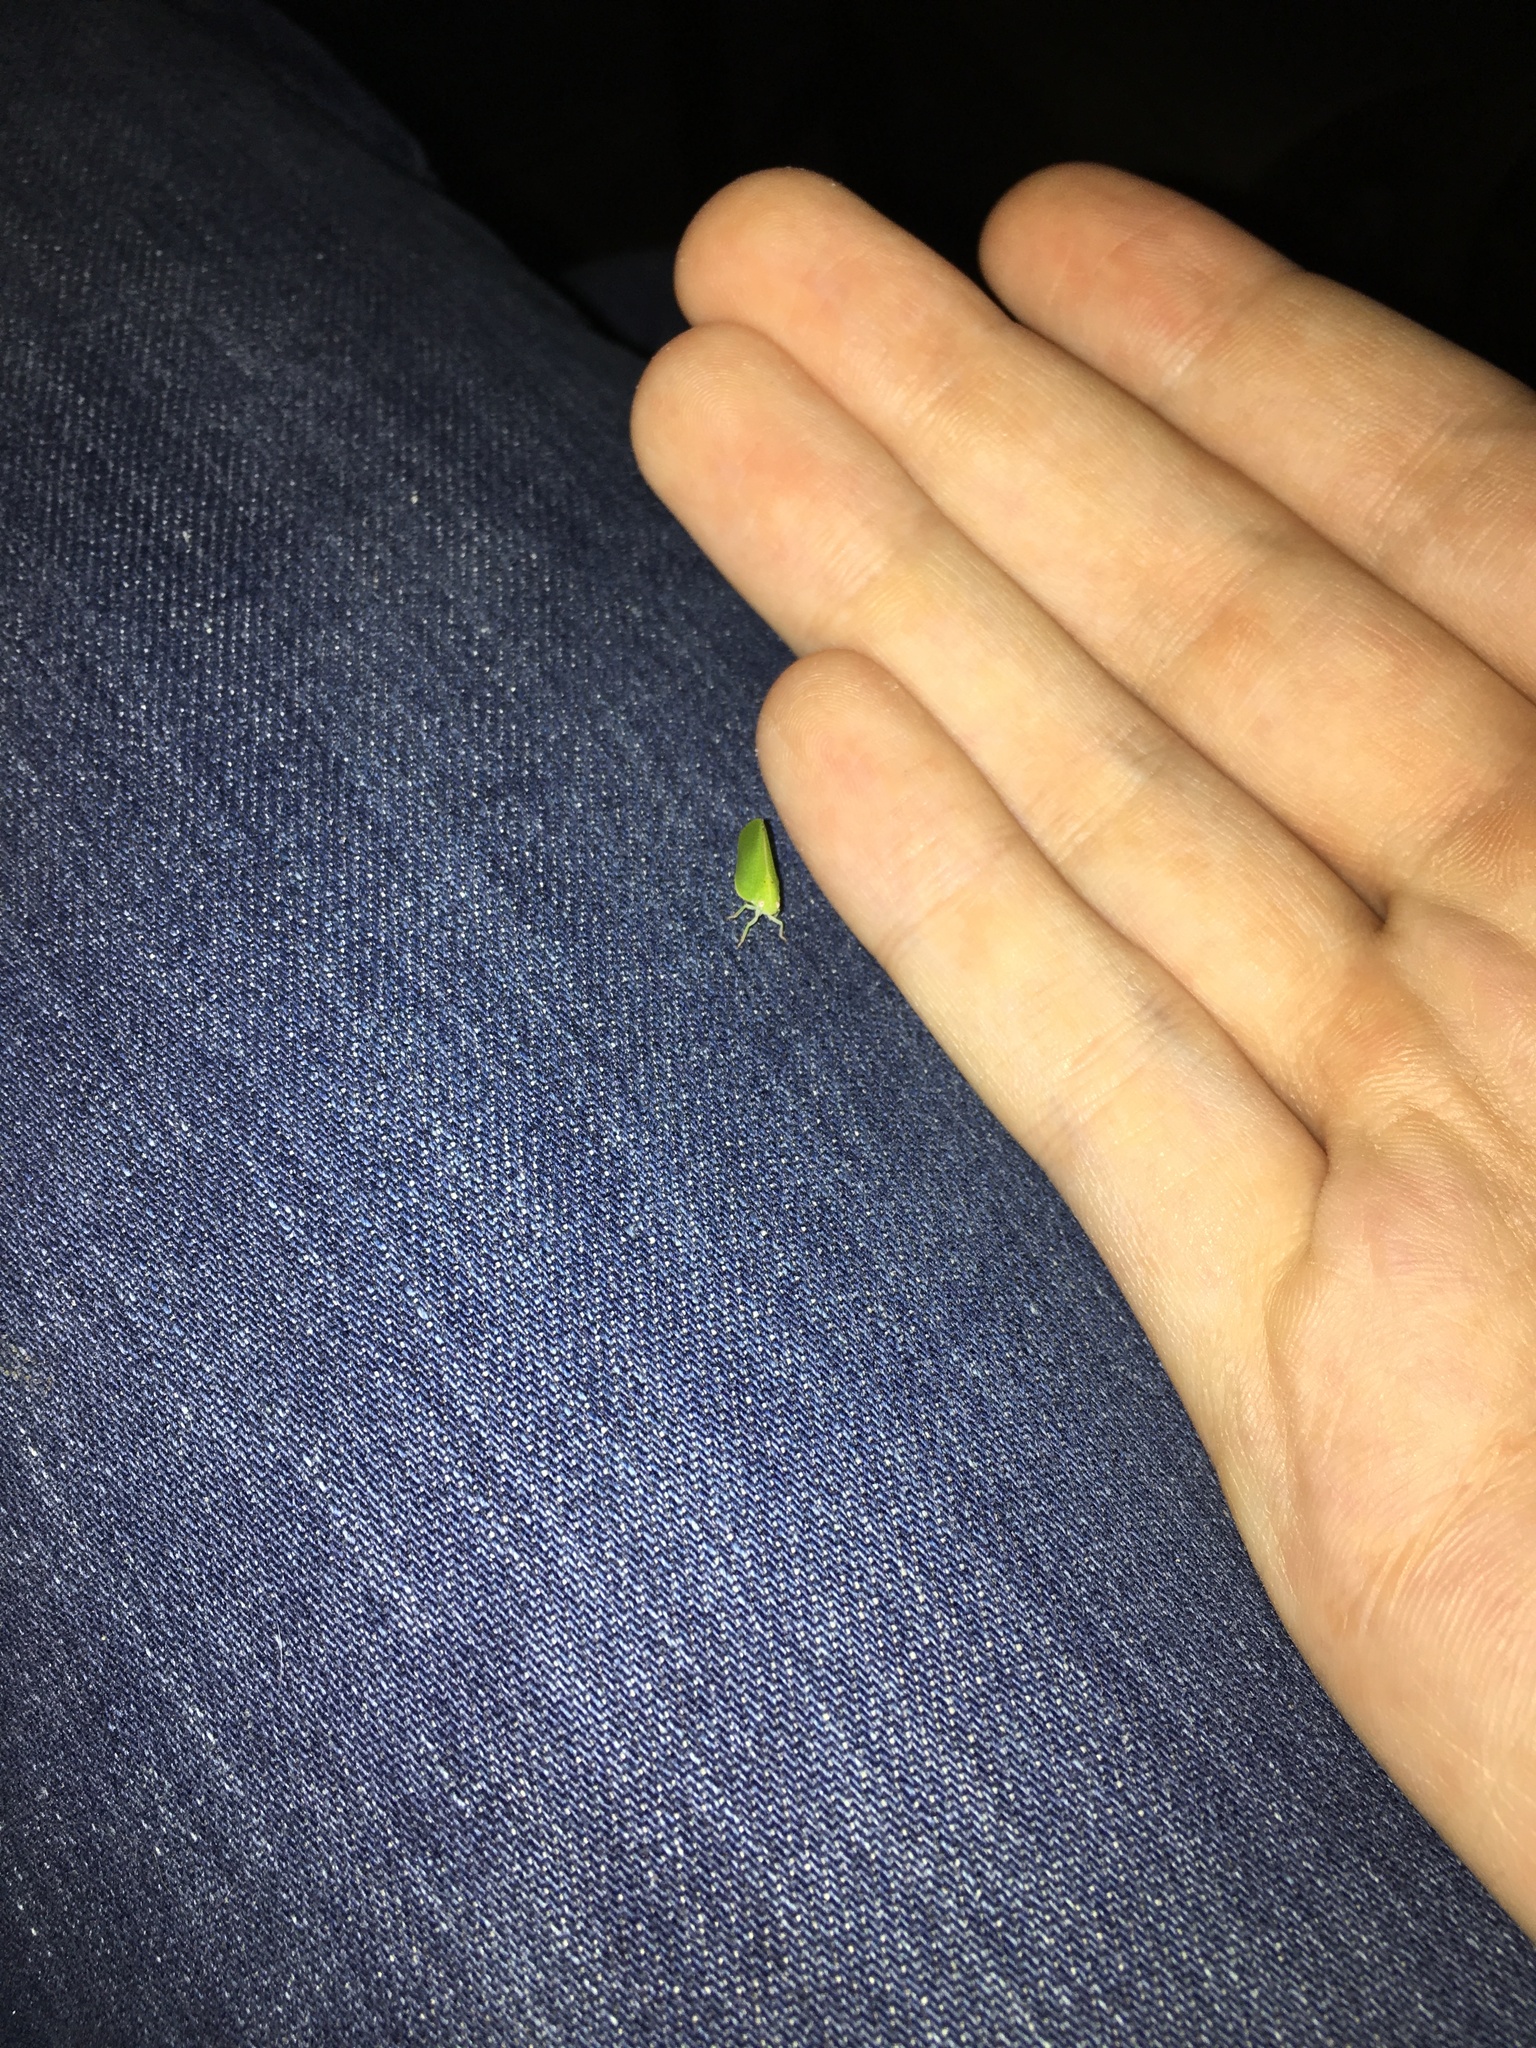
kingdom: Animalia
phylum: Arthropoda
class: Insecta
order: Hemiptera
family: Acanaloniidae
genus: Acanalonia
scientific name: Acanalonia conica
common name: Green cone-headed planthopper
